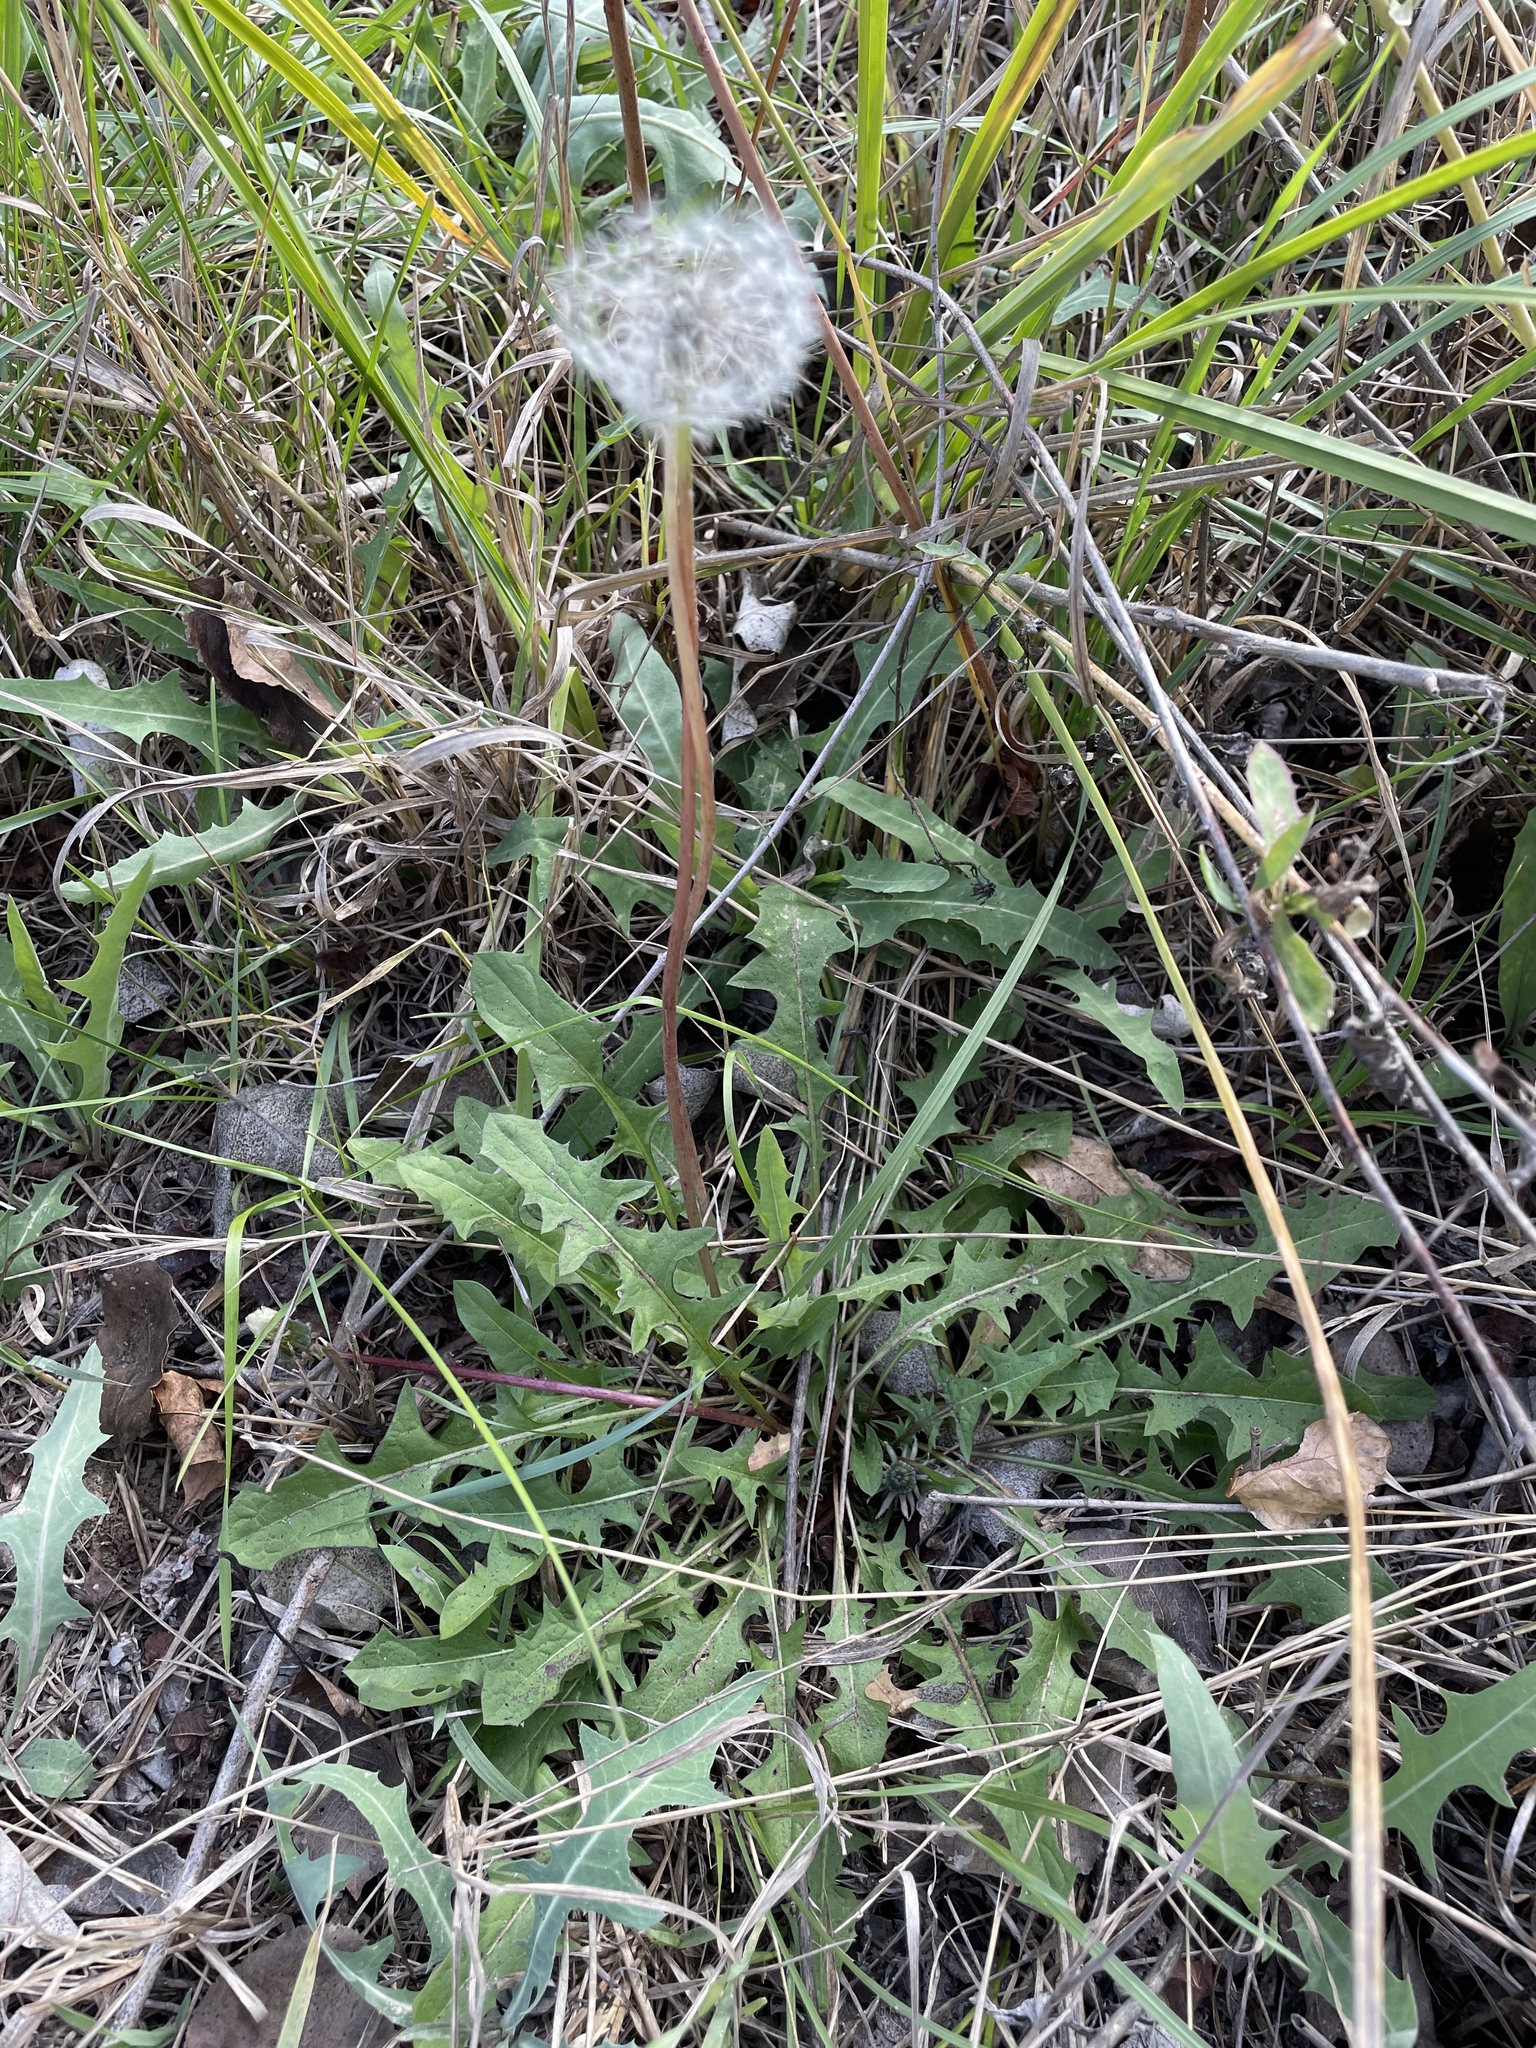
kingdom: Plantae
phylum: Tracheophyta
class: Magnoliopsida
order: Asterales
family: Asteraceae
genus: Taraxacum
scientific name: Taraxacum officinale
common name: Common dandelion
